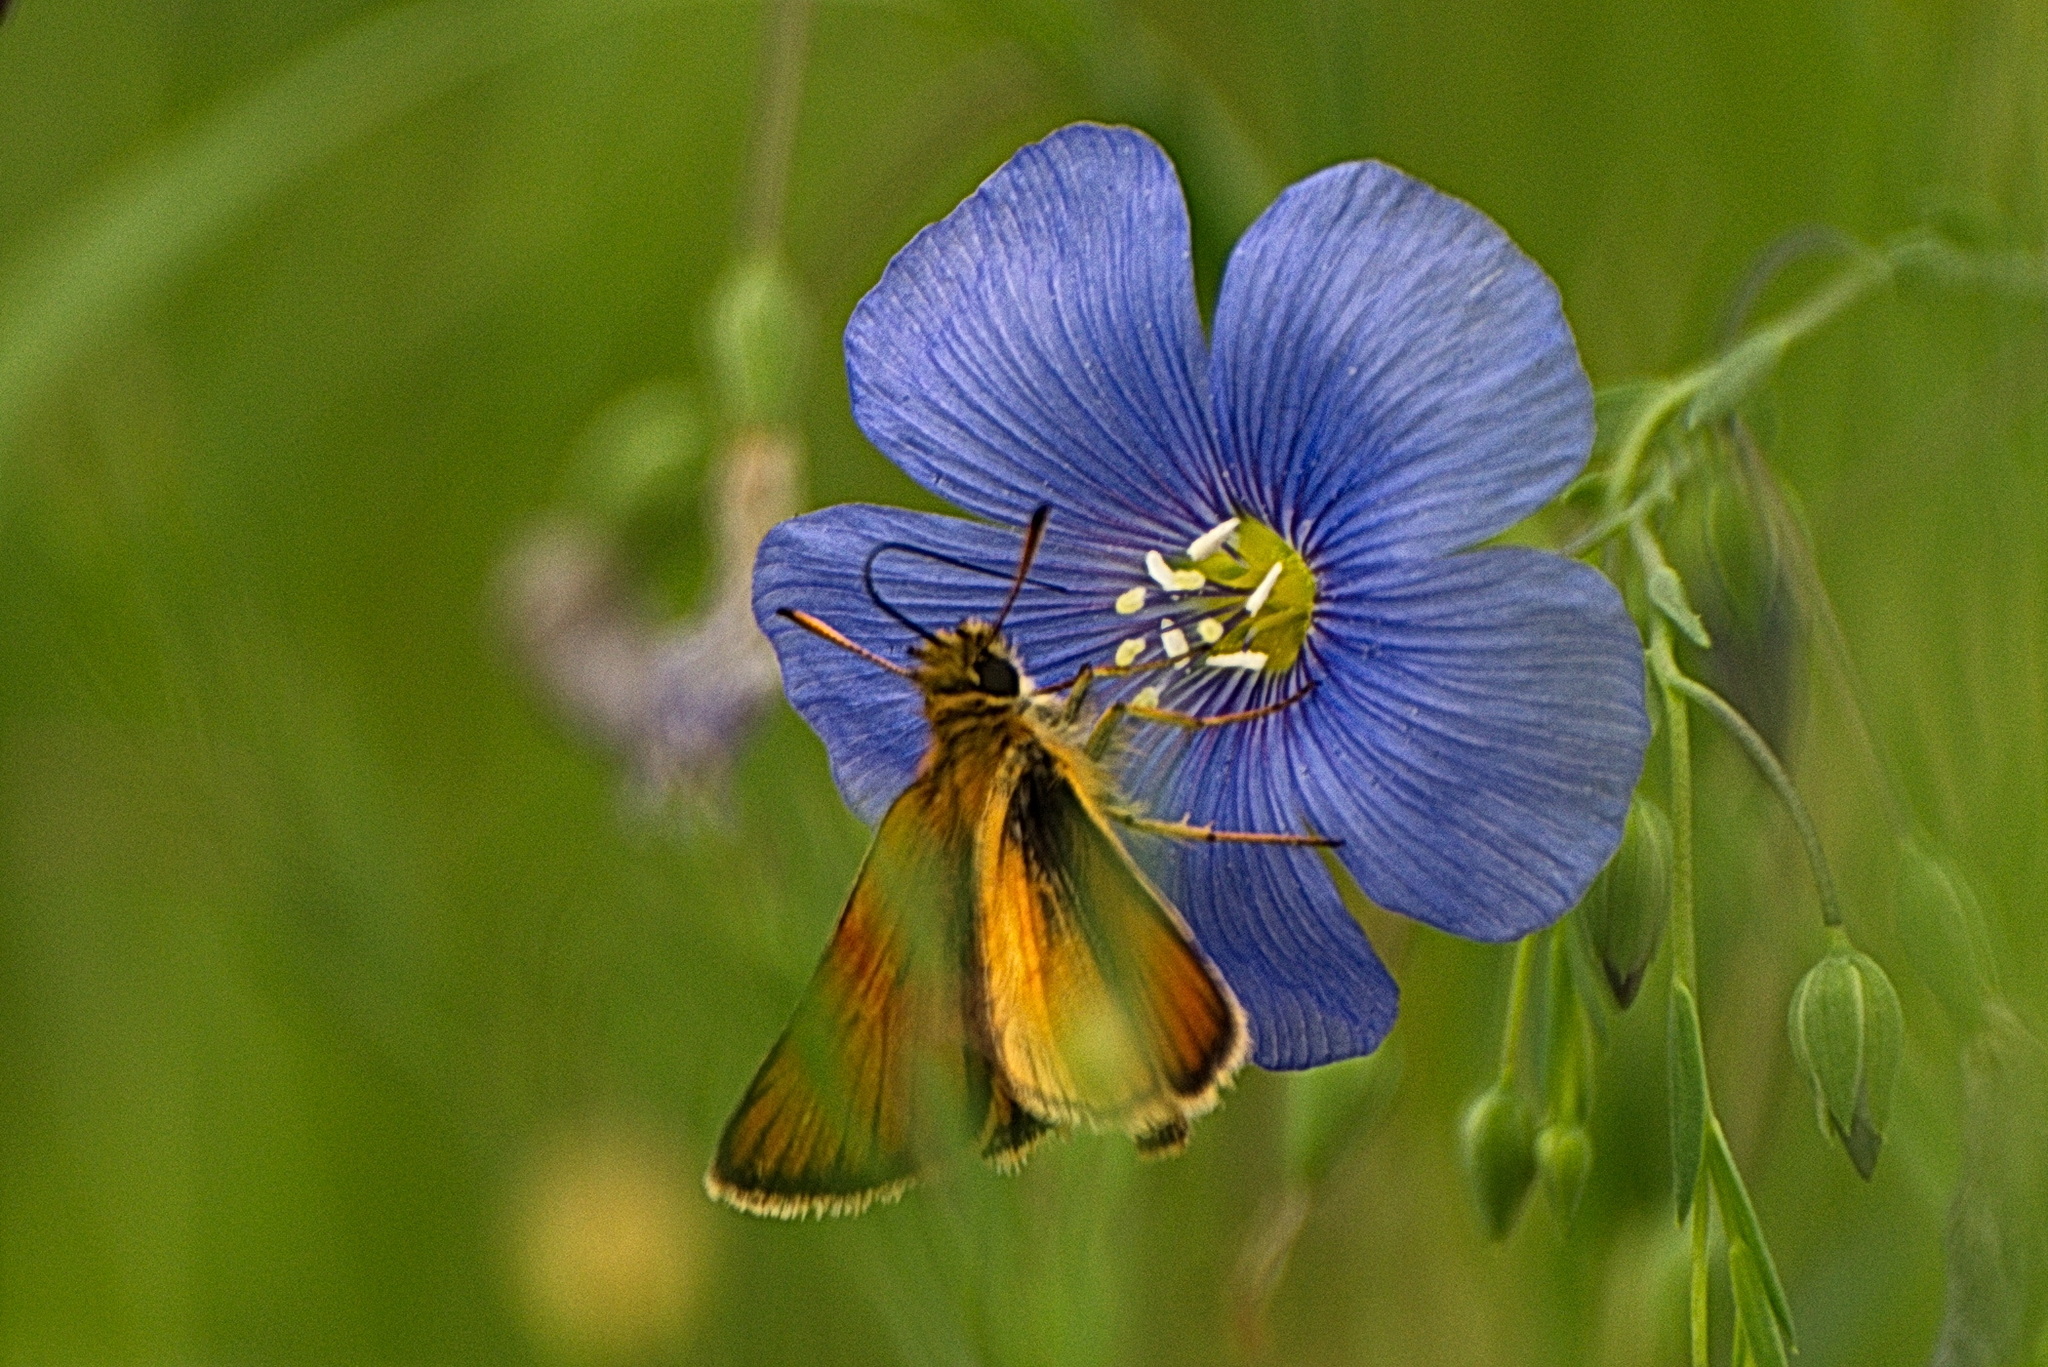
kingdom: Animalia
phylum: Arthropoda
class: Insecta
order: Lepidoptera
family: Hesperiidae
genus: Thymelicus
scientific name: Thymelicus lineola
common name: Essex skipper
